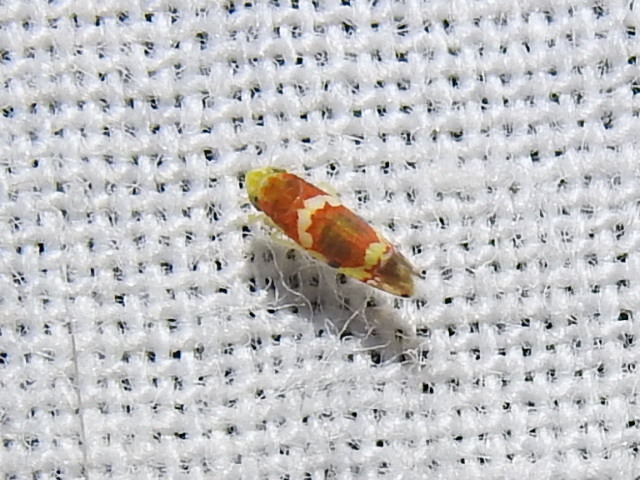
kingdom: Animalia
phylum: Arthropoda
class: Insecta
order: Hemiptera
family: Cicadellidae
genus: Erythroneura
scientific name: Erythroneura vitis
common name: Grapevine leafhopper
